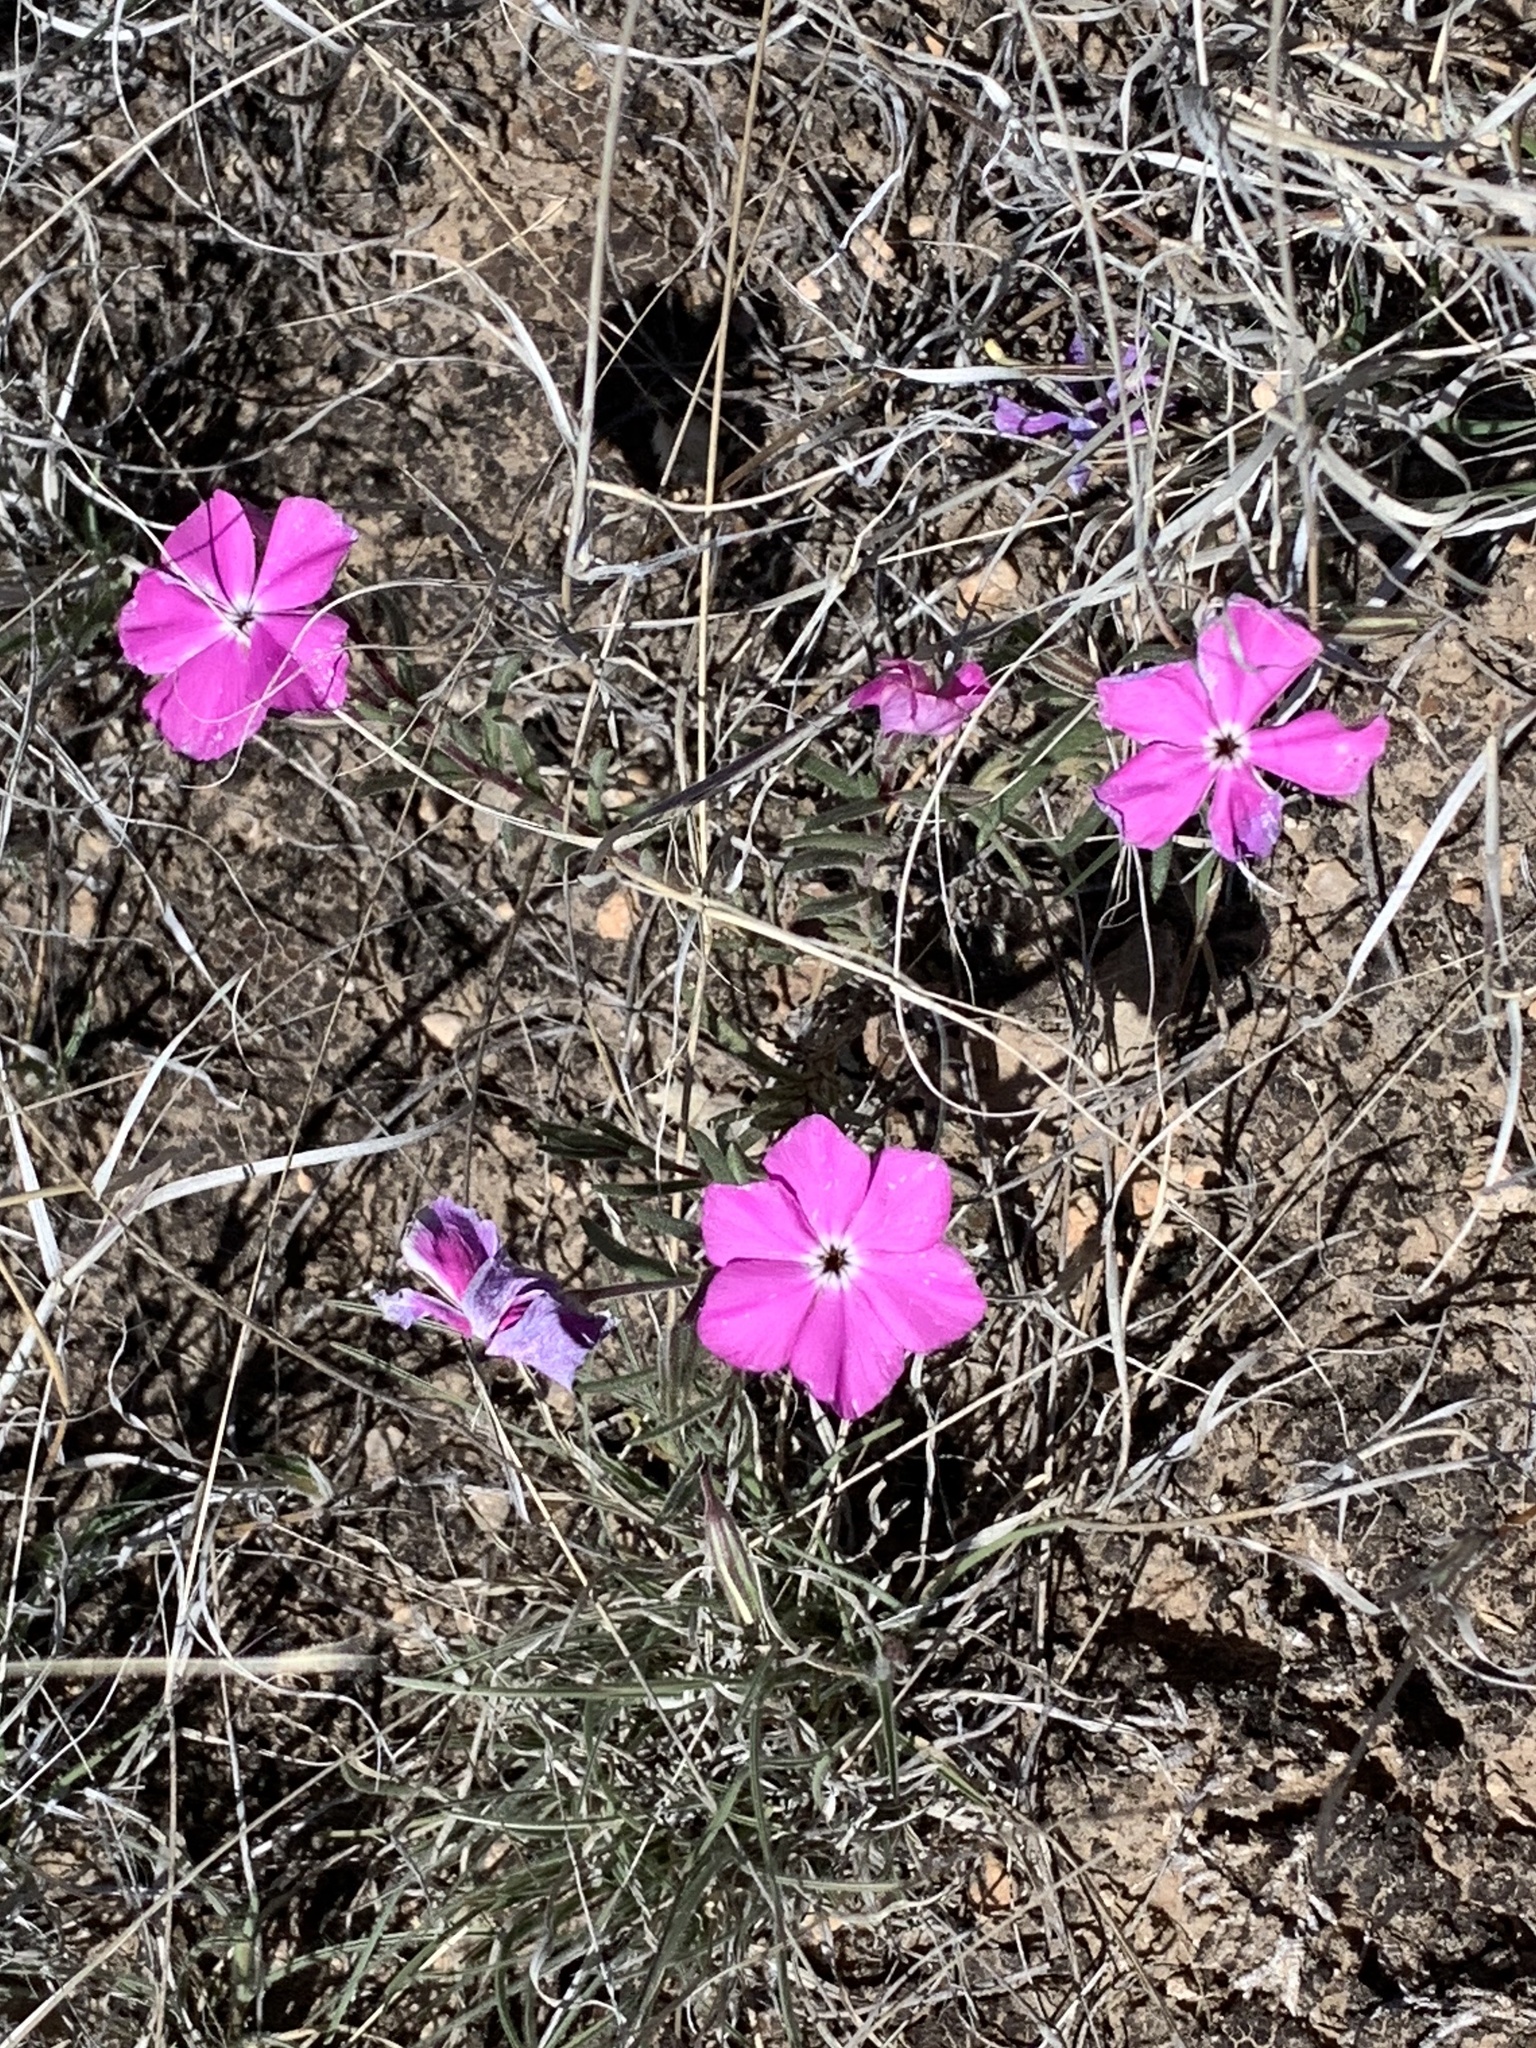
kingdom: Plantae
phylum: Tracheophyta
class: Magnoliopsida
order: Ericales
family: Polemoniaceae
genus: Phlox
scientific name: Phlox nana
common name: Santa fe phlox
